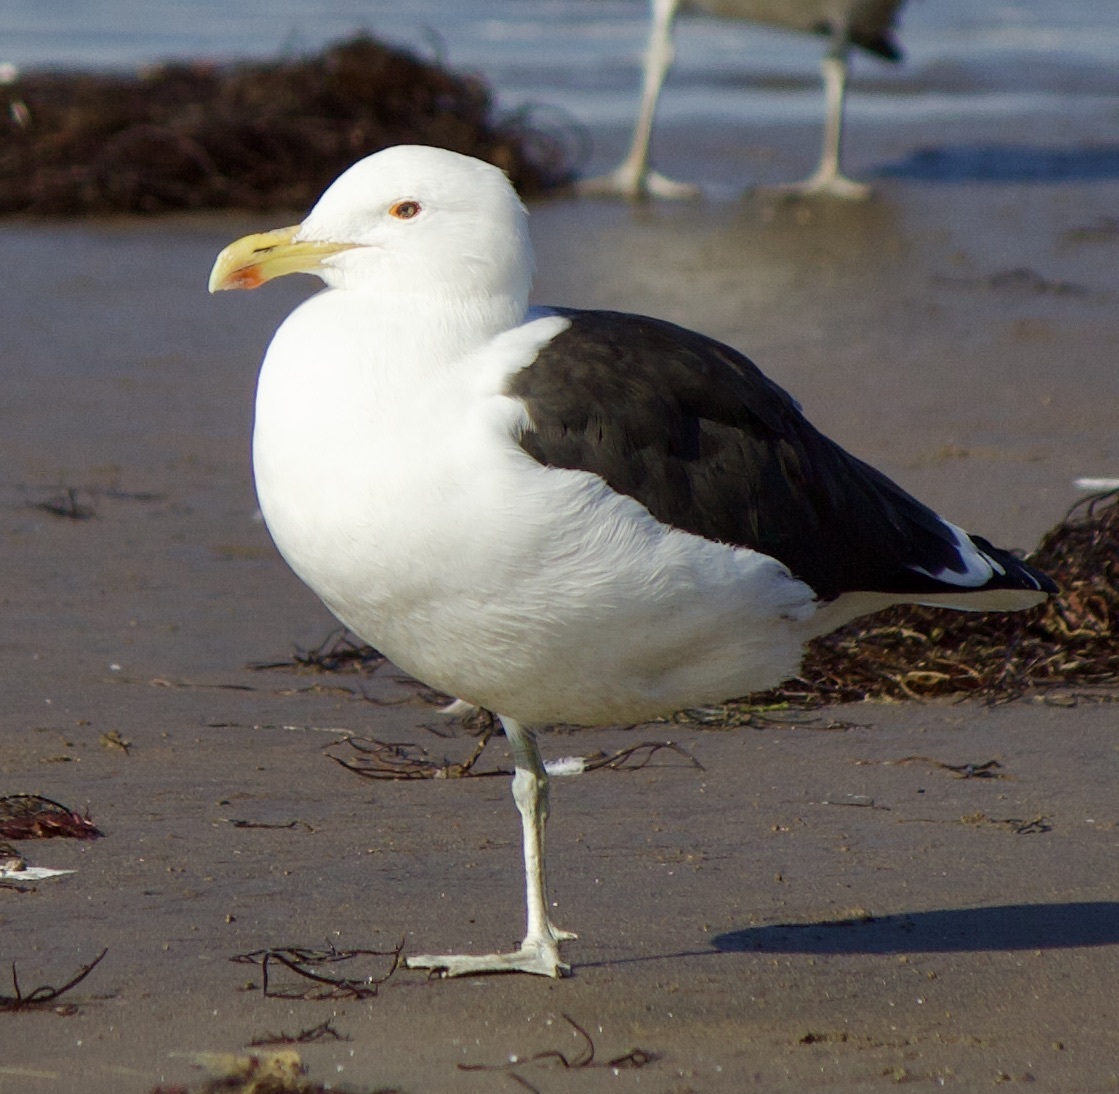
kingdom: Animalia
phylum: Chordata
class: Aves
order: Charadriiformes
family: Laridae
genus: Larus
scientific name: Larus dominicanus
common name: Kelp gull
